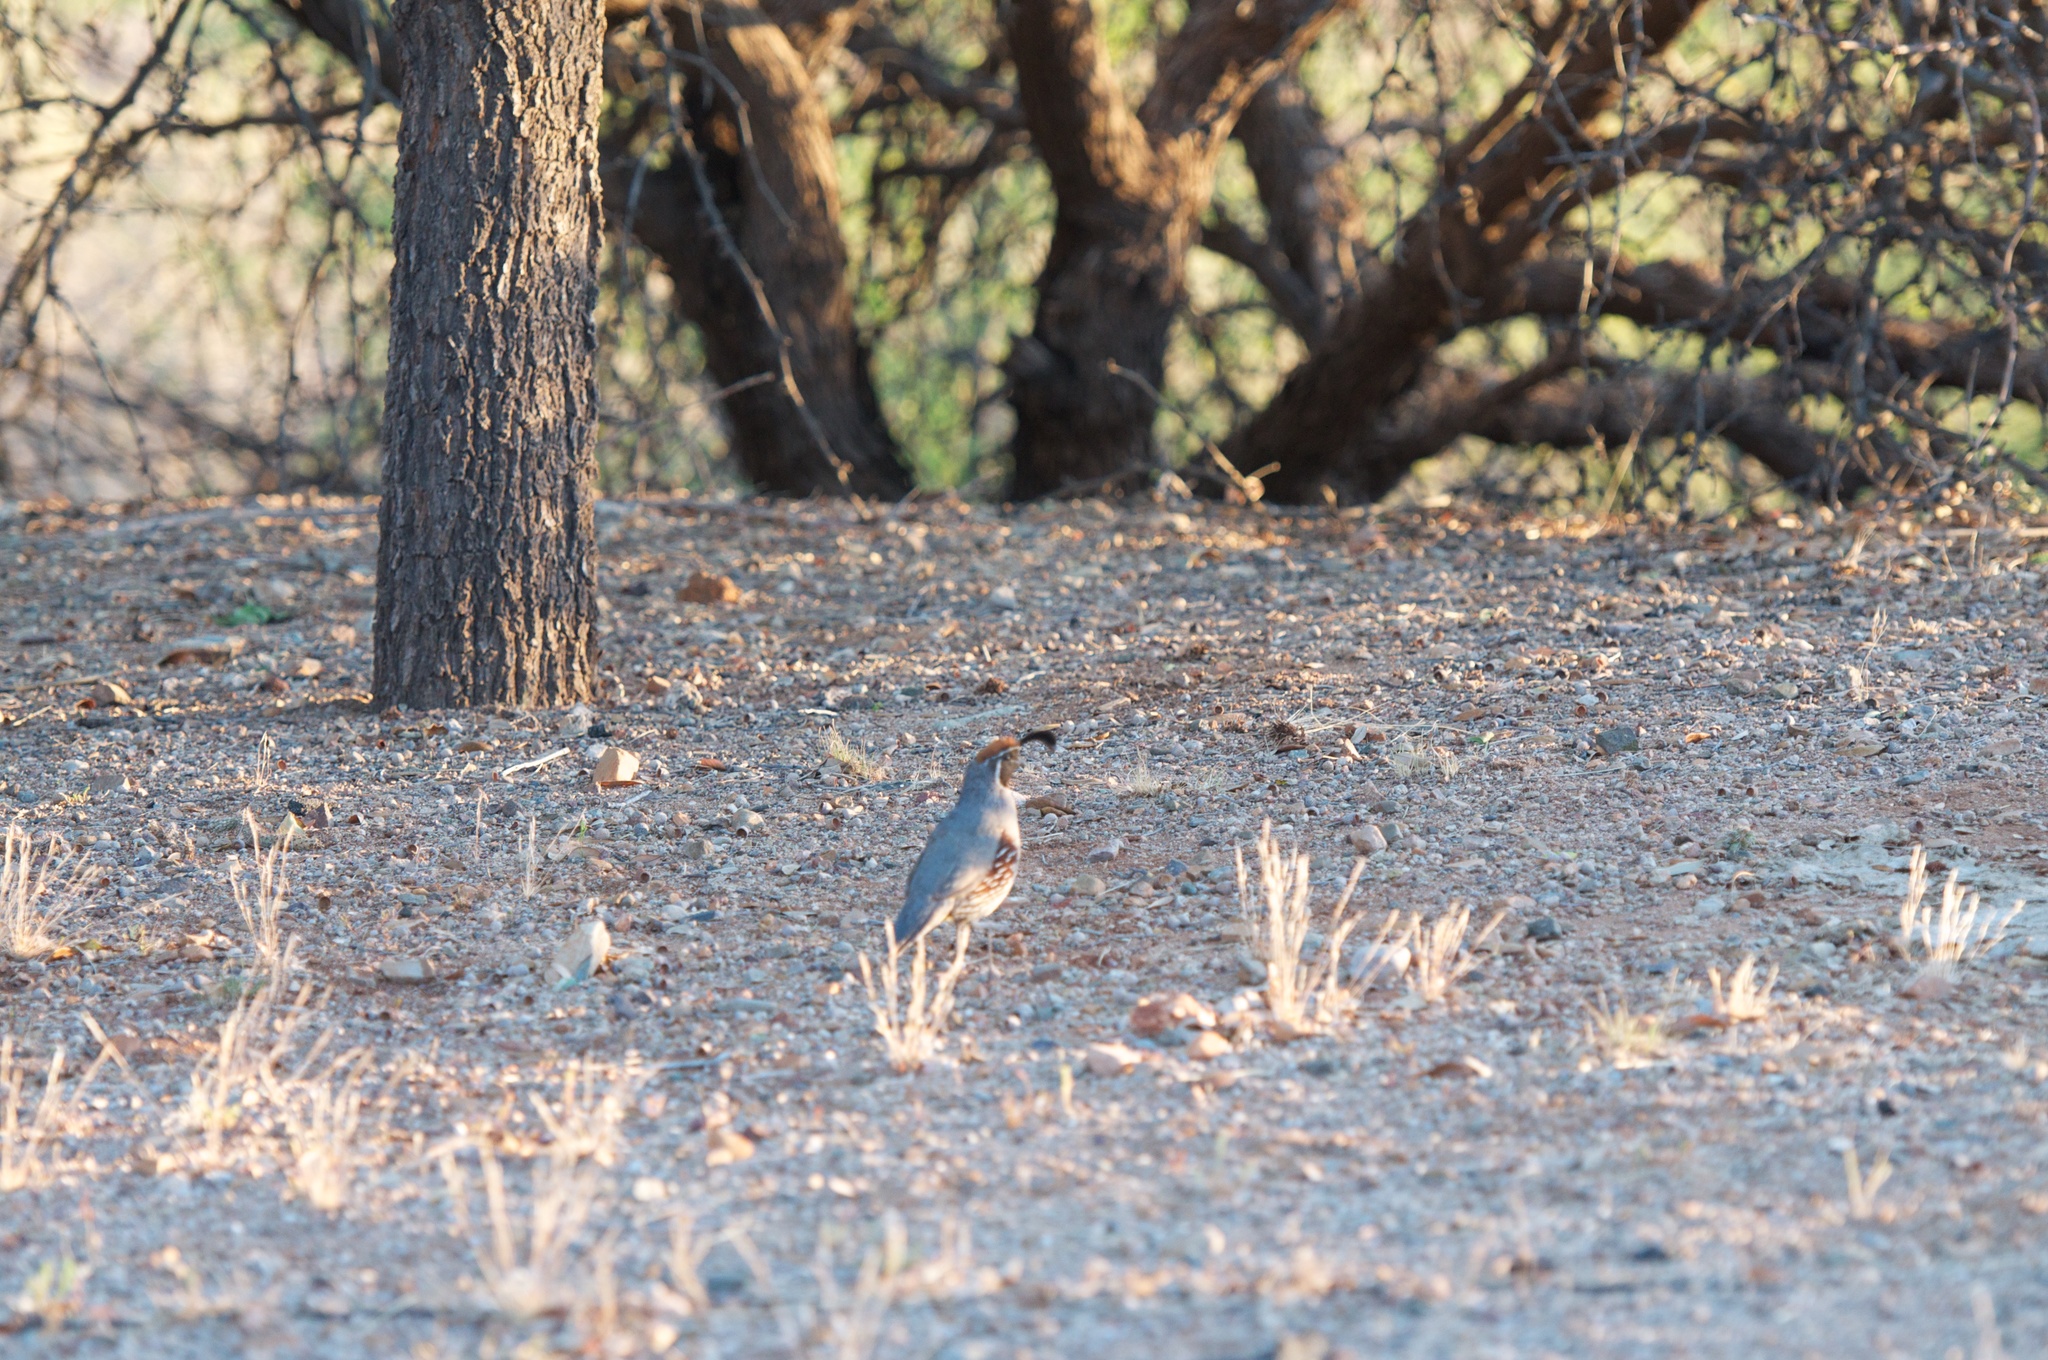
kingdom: Animalia
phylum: Chordata
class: Aves
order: Galliformes
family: Odontophoridae
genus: Callipepla
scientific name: Callipepla gambelii
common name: Gambel's quail
